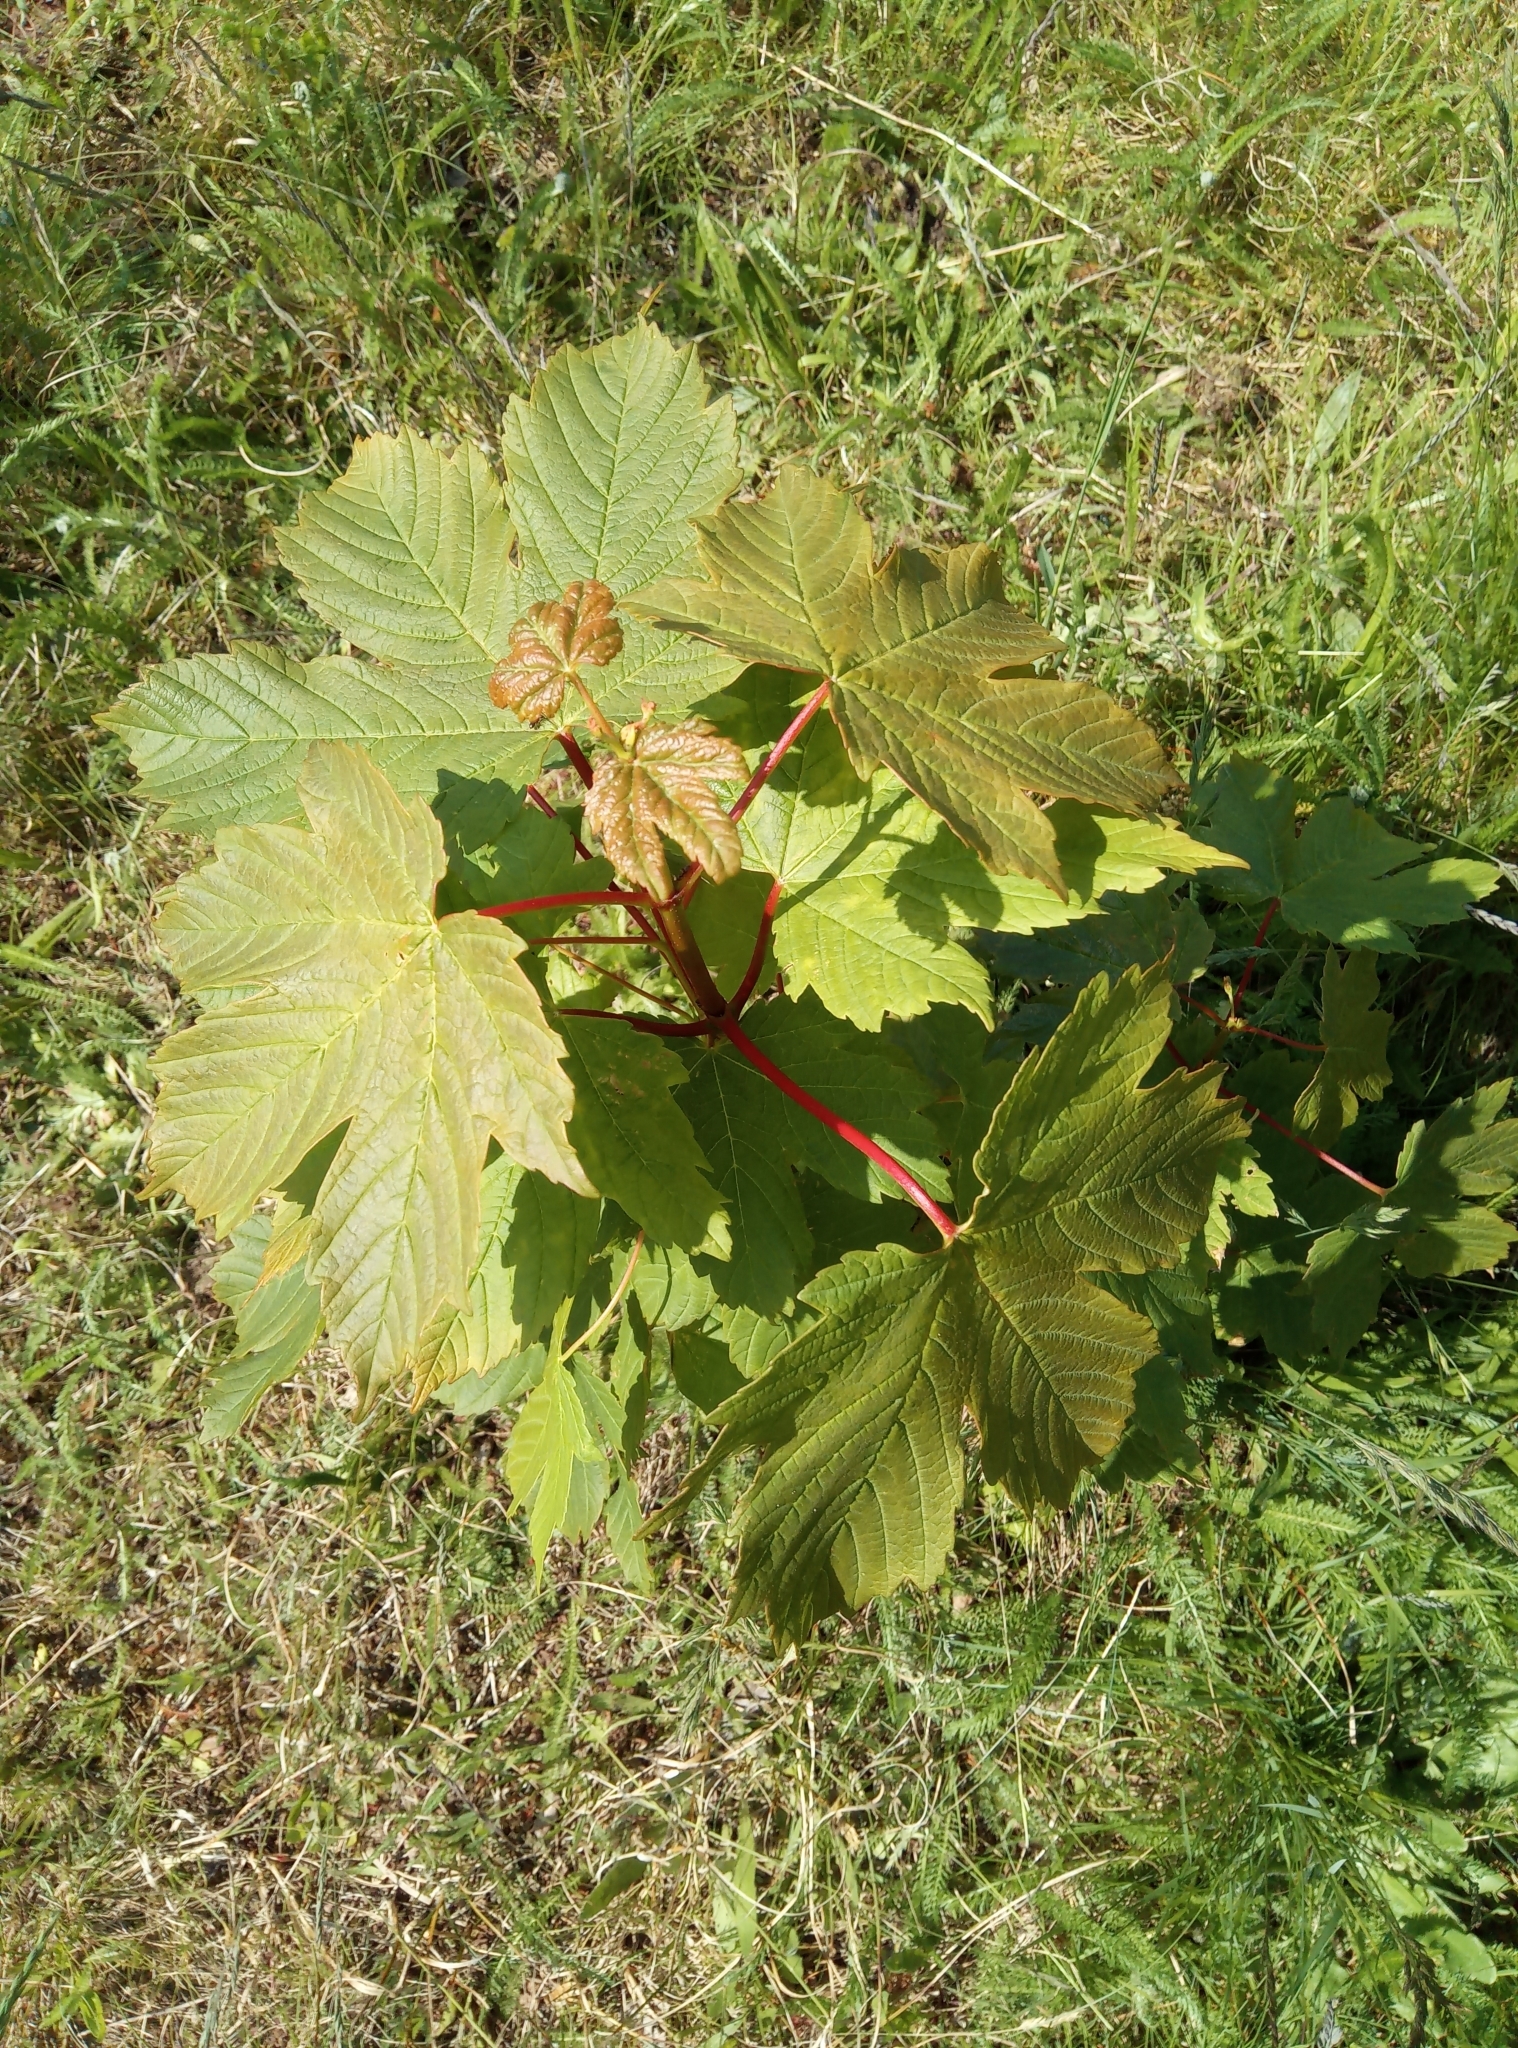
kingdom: Plantae
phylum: Tracheophyta
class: Magnoliopsida
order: Sapindales
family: Sapindaceae
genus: Acer
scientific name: Acer pseudoplatanus
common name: Sycamore
